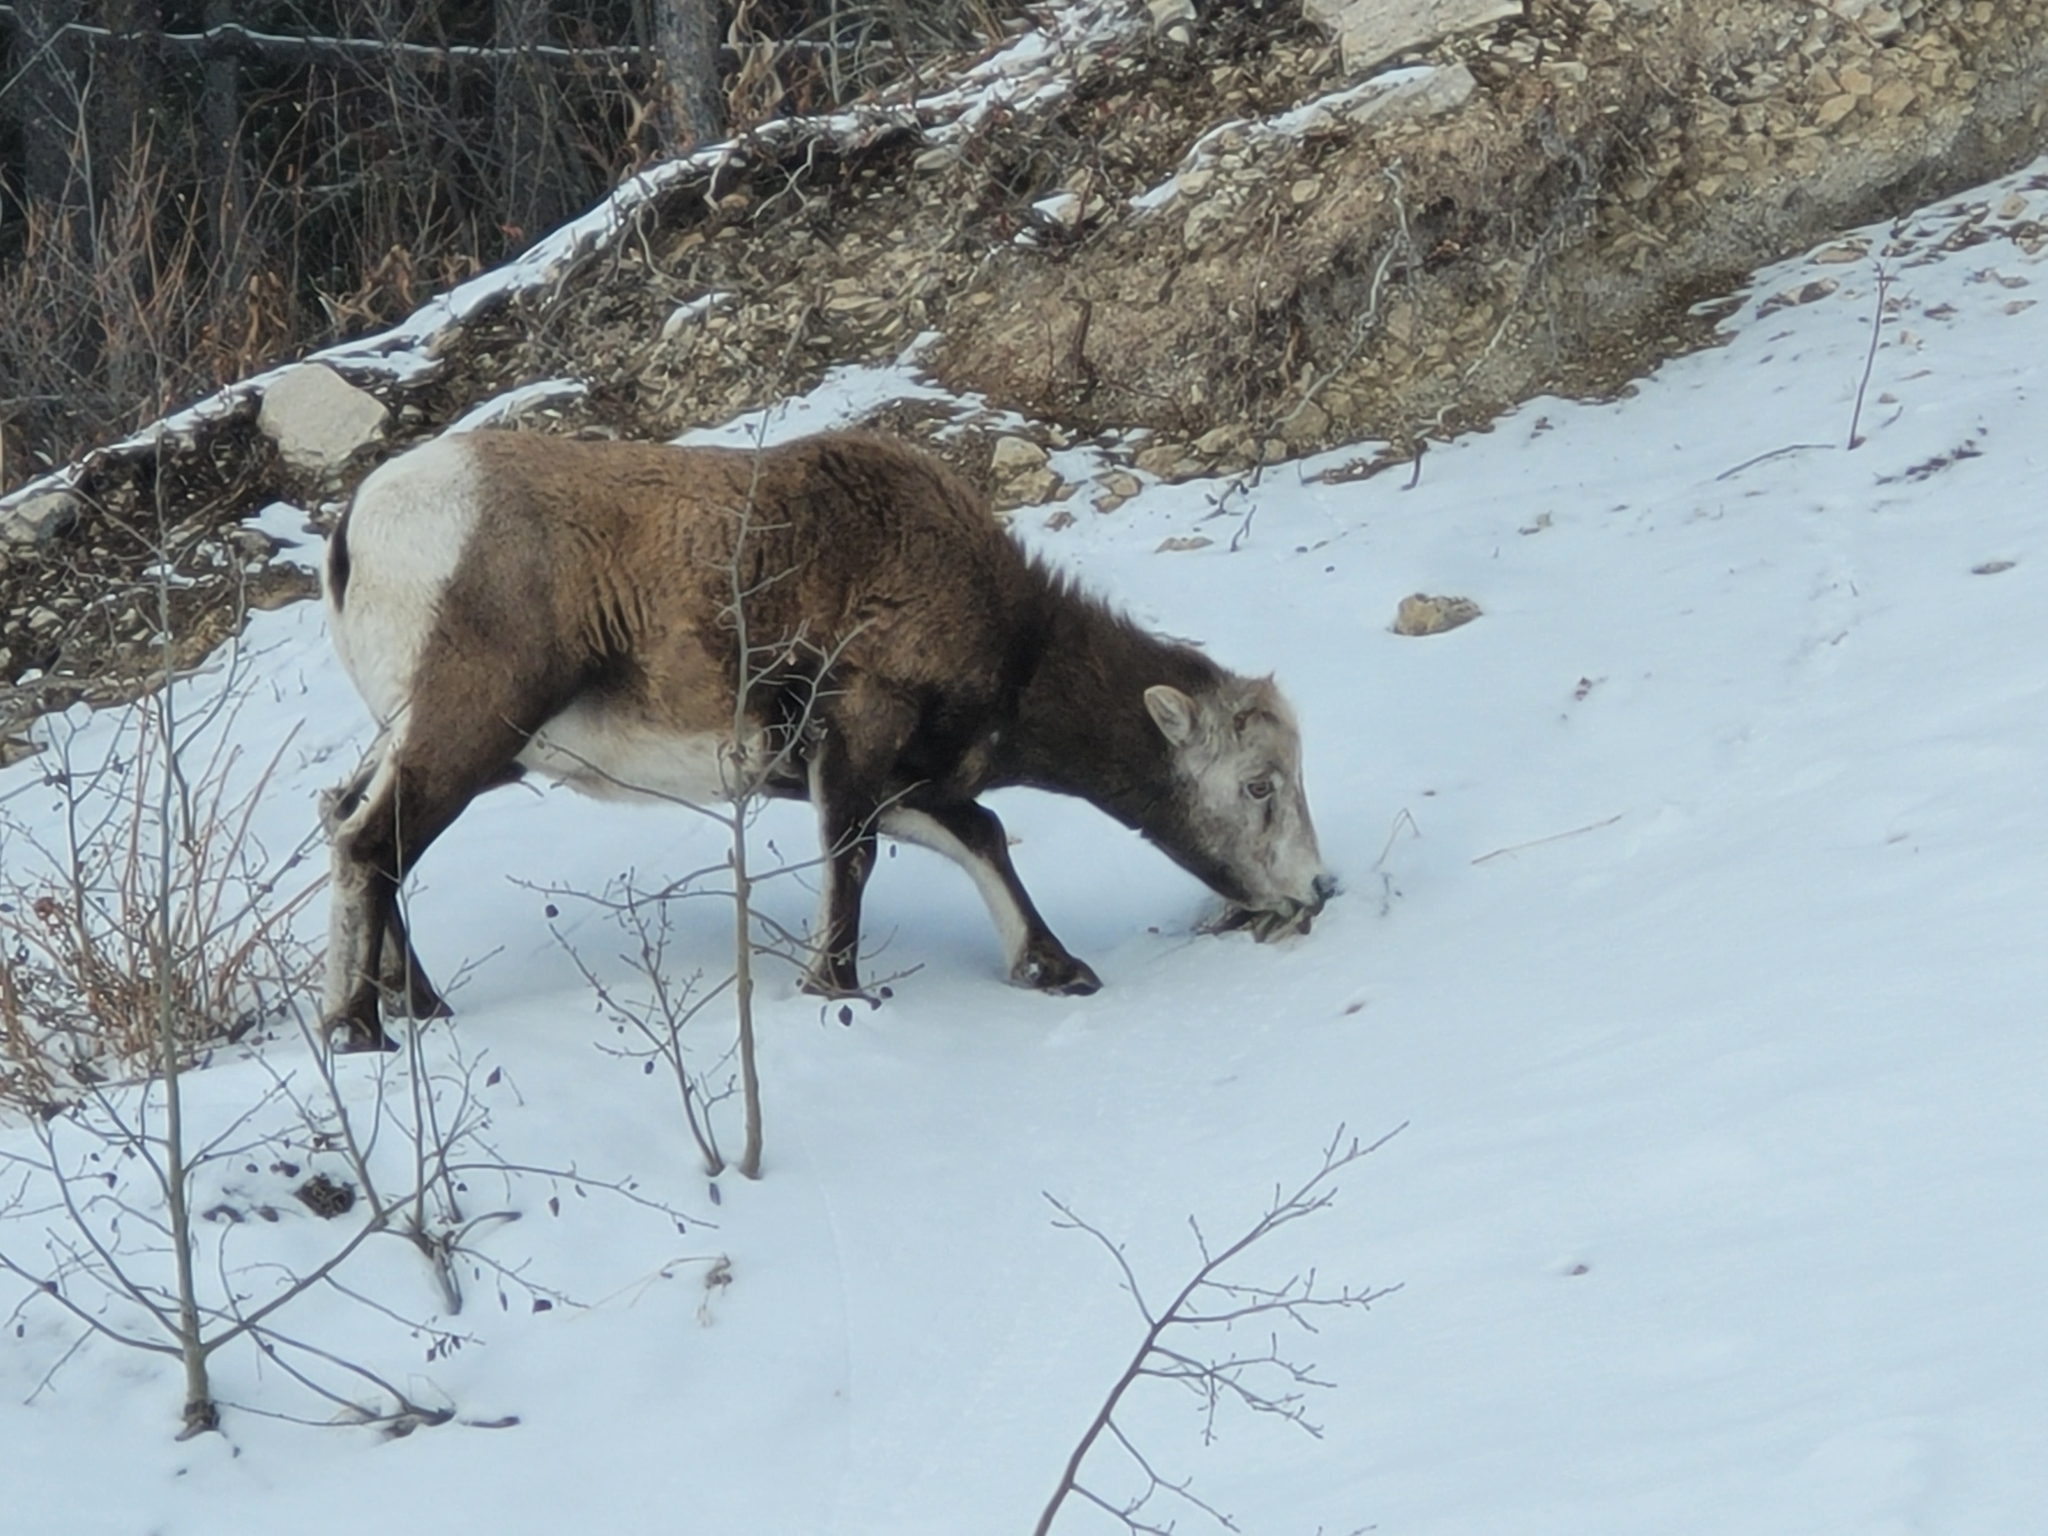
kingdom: Animalia
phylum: Chordata
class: Mammalia
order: Artiodactyla
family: Bovidae
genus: Ovis
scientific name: Ovis canadensis
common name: Bighorn sheep
